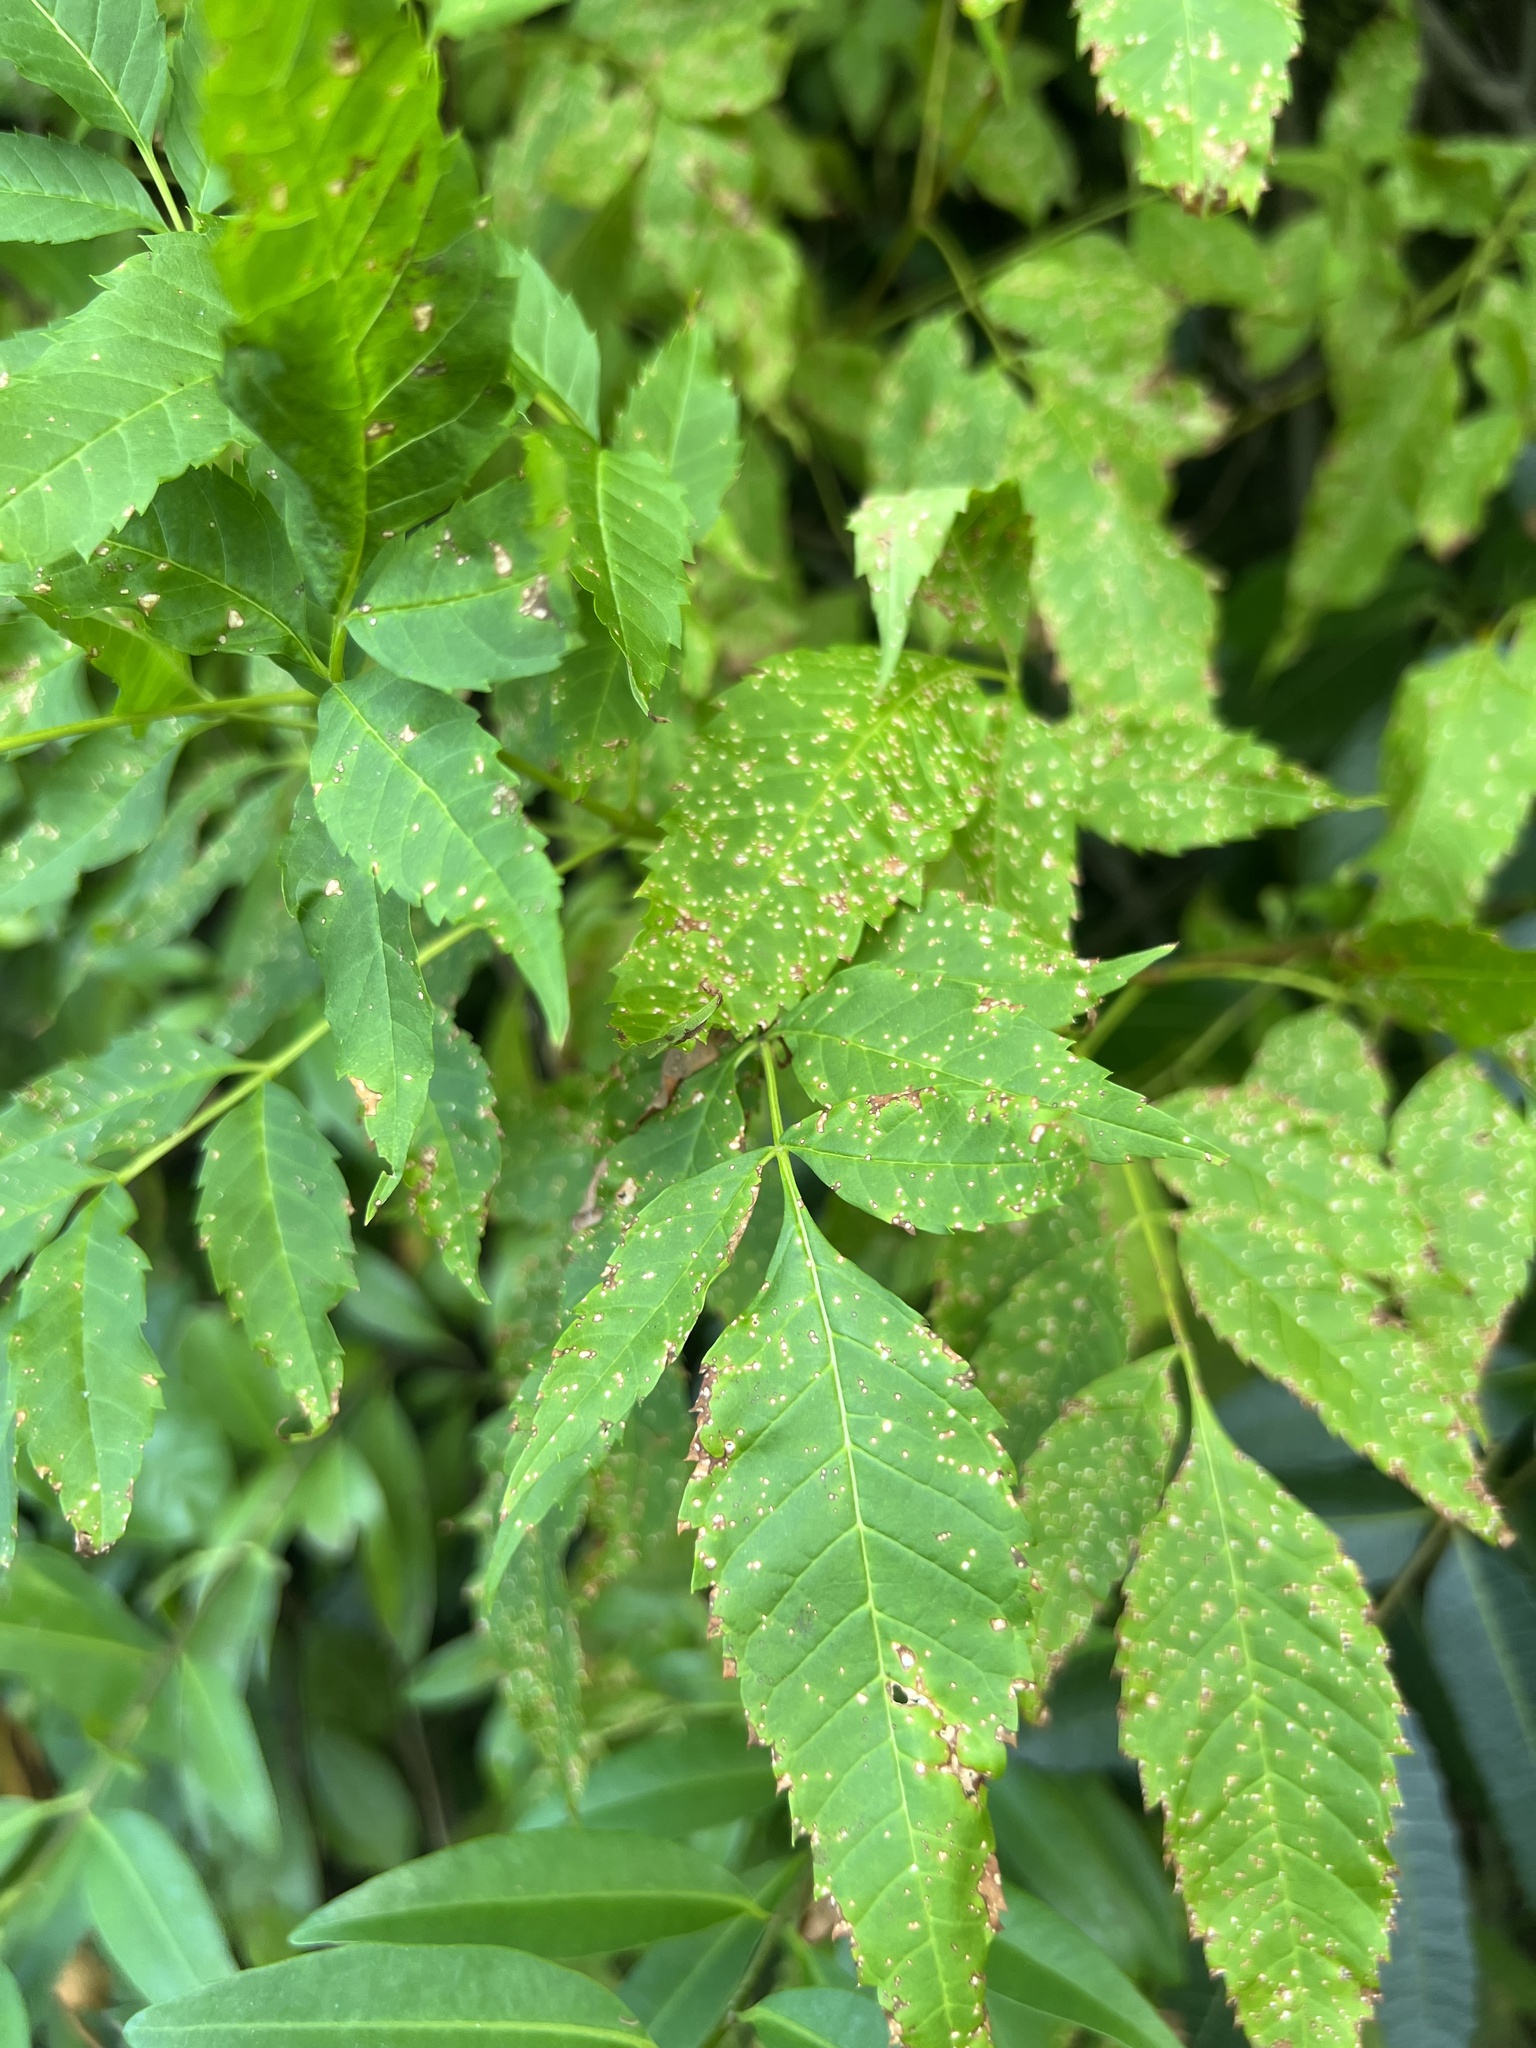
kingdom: Plantae
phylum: Tracheophyta
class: Magnoliopsida
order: Lamiales
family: Bignoniaceae
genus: Tecoma
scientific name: Tecoma stans
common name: Yellow trumpetbush
